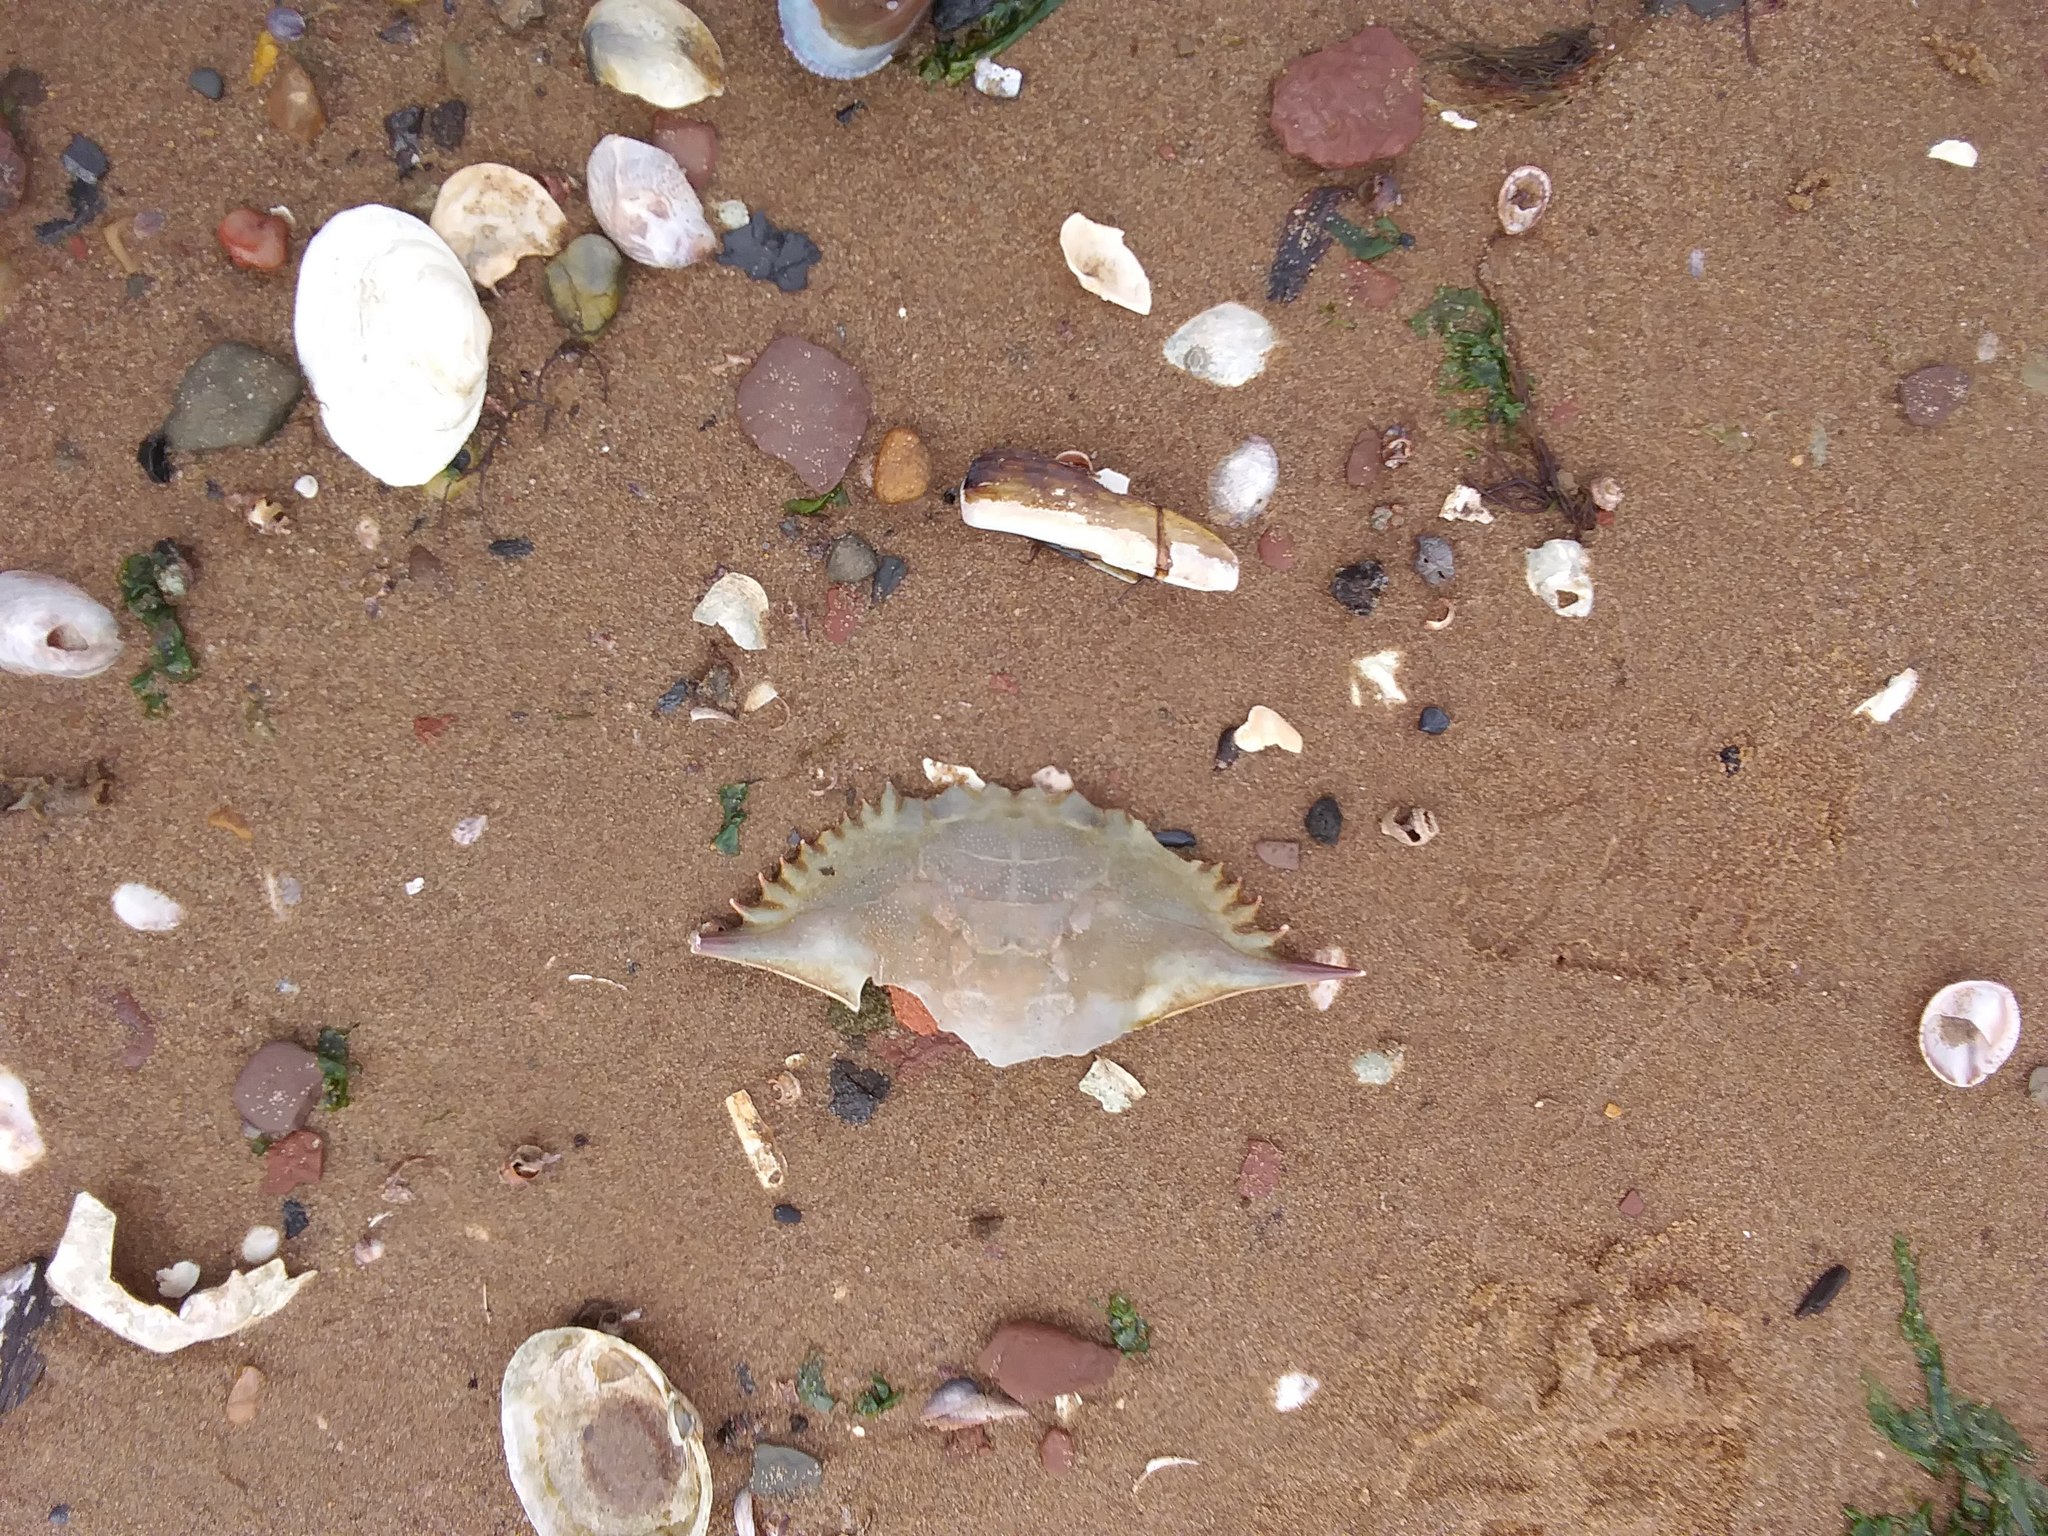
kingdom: Animalia
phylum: Mollusca
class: Bivalvia
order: Adapedonta
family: Pharidae
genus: Ensis
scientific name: Ensis leei
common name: American jack knife clam
